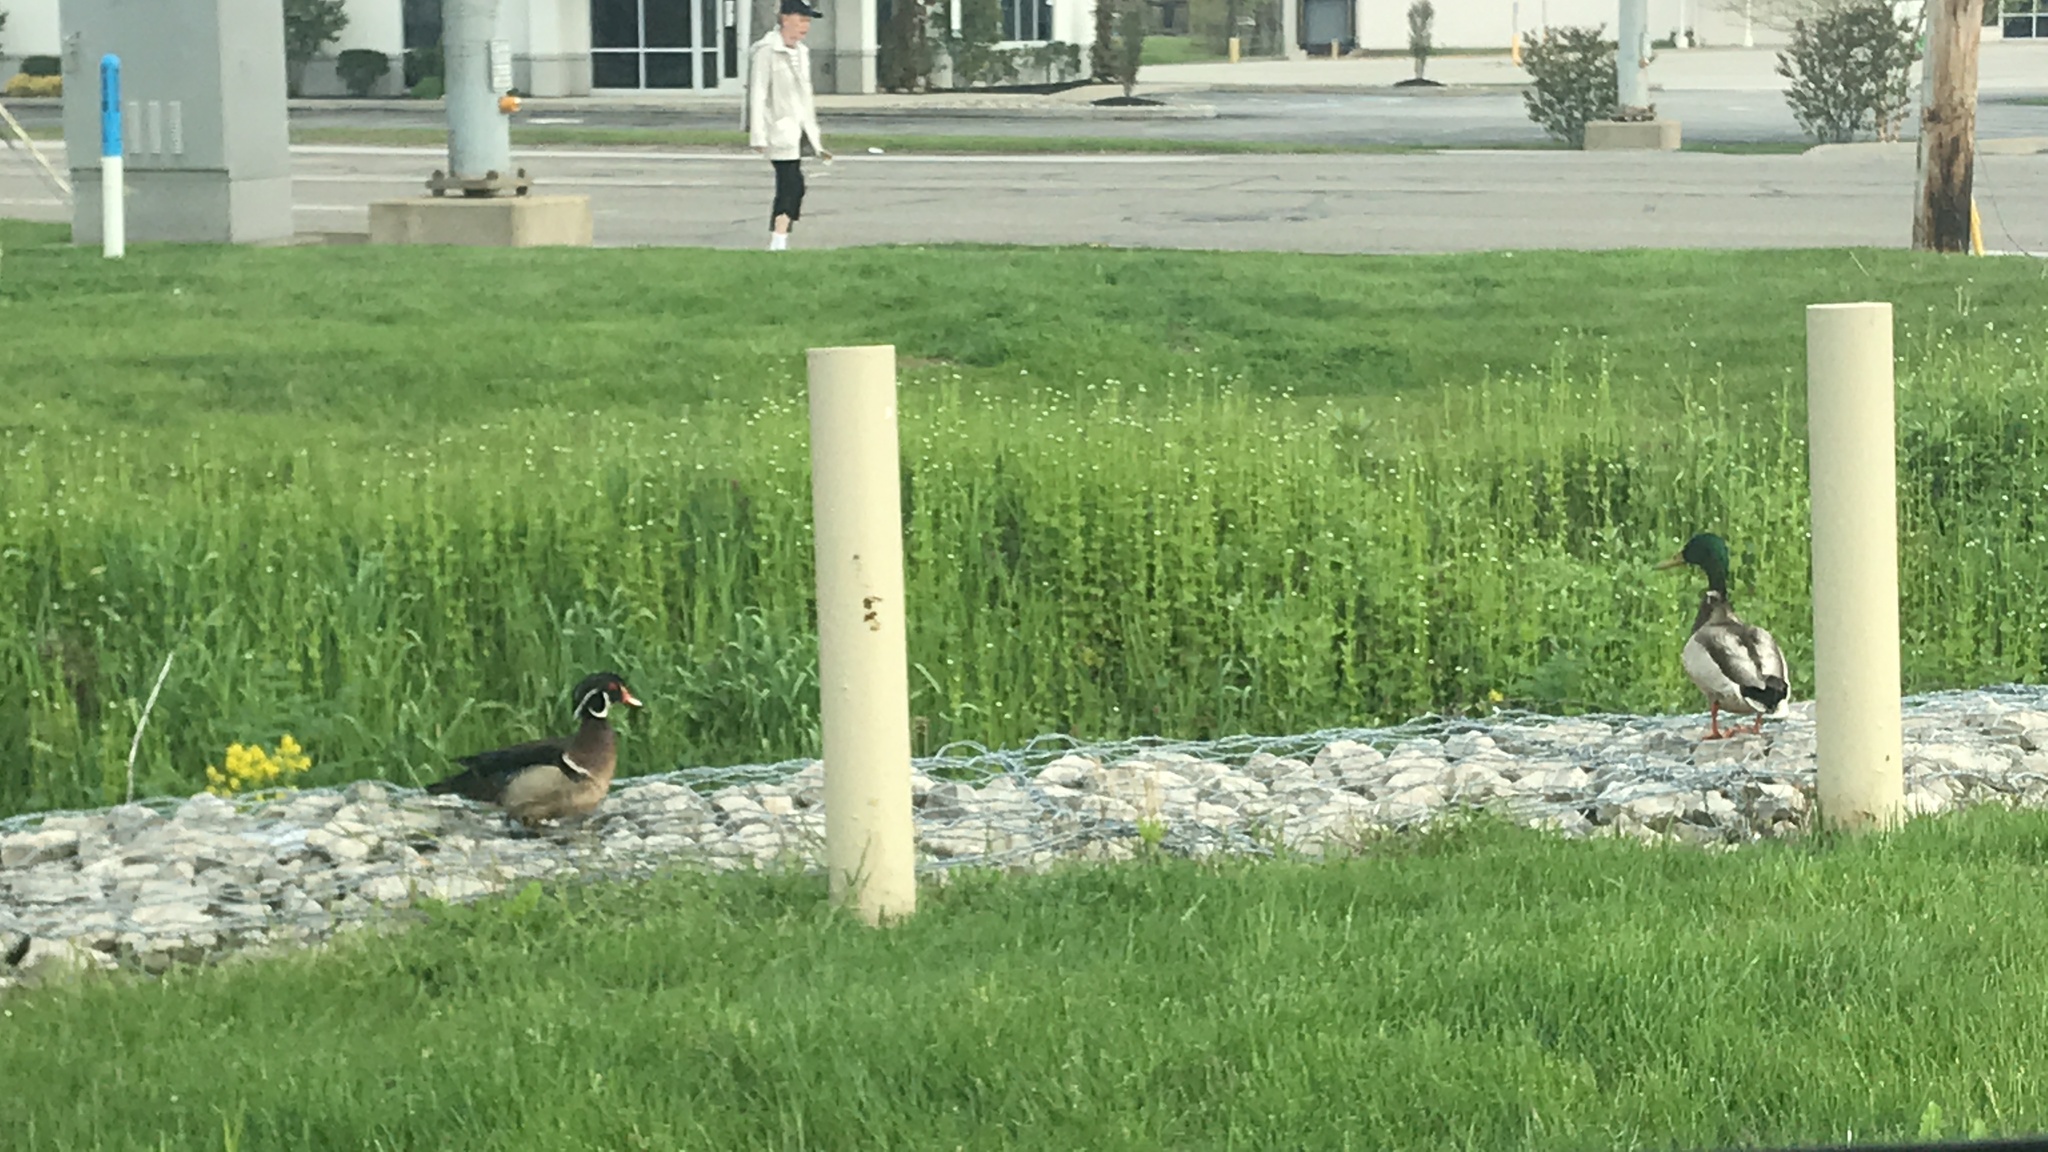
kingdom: Animalia
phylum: Chordata
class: Aves
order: Anseriformes
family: Anatidae
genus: Aix
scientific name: Aix sponsa
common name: Wood duck
